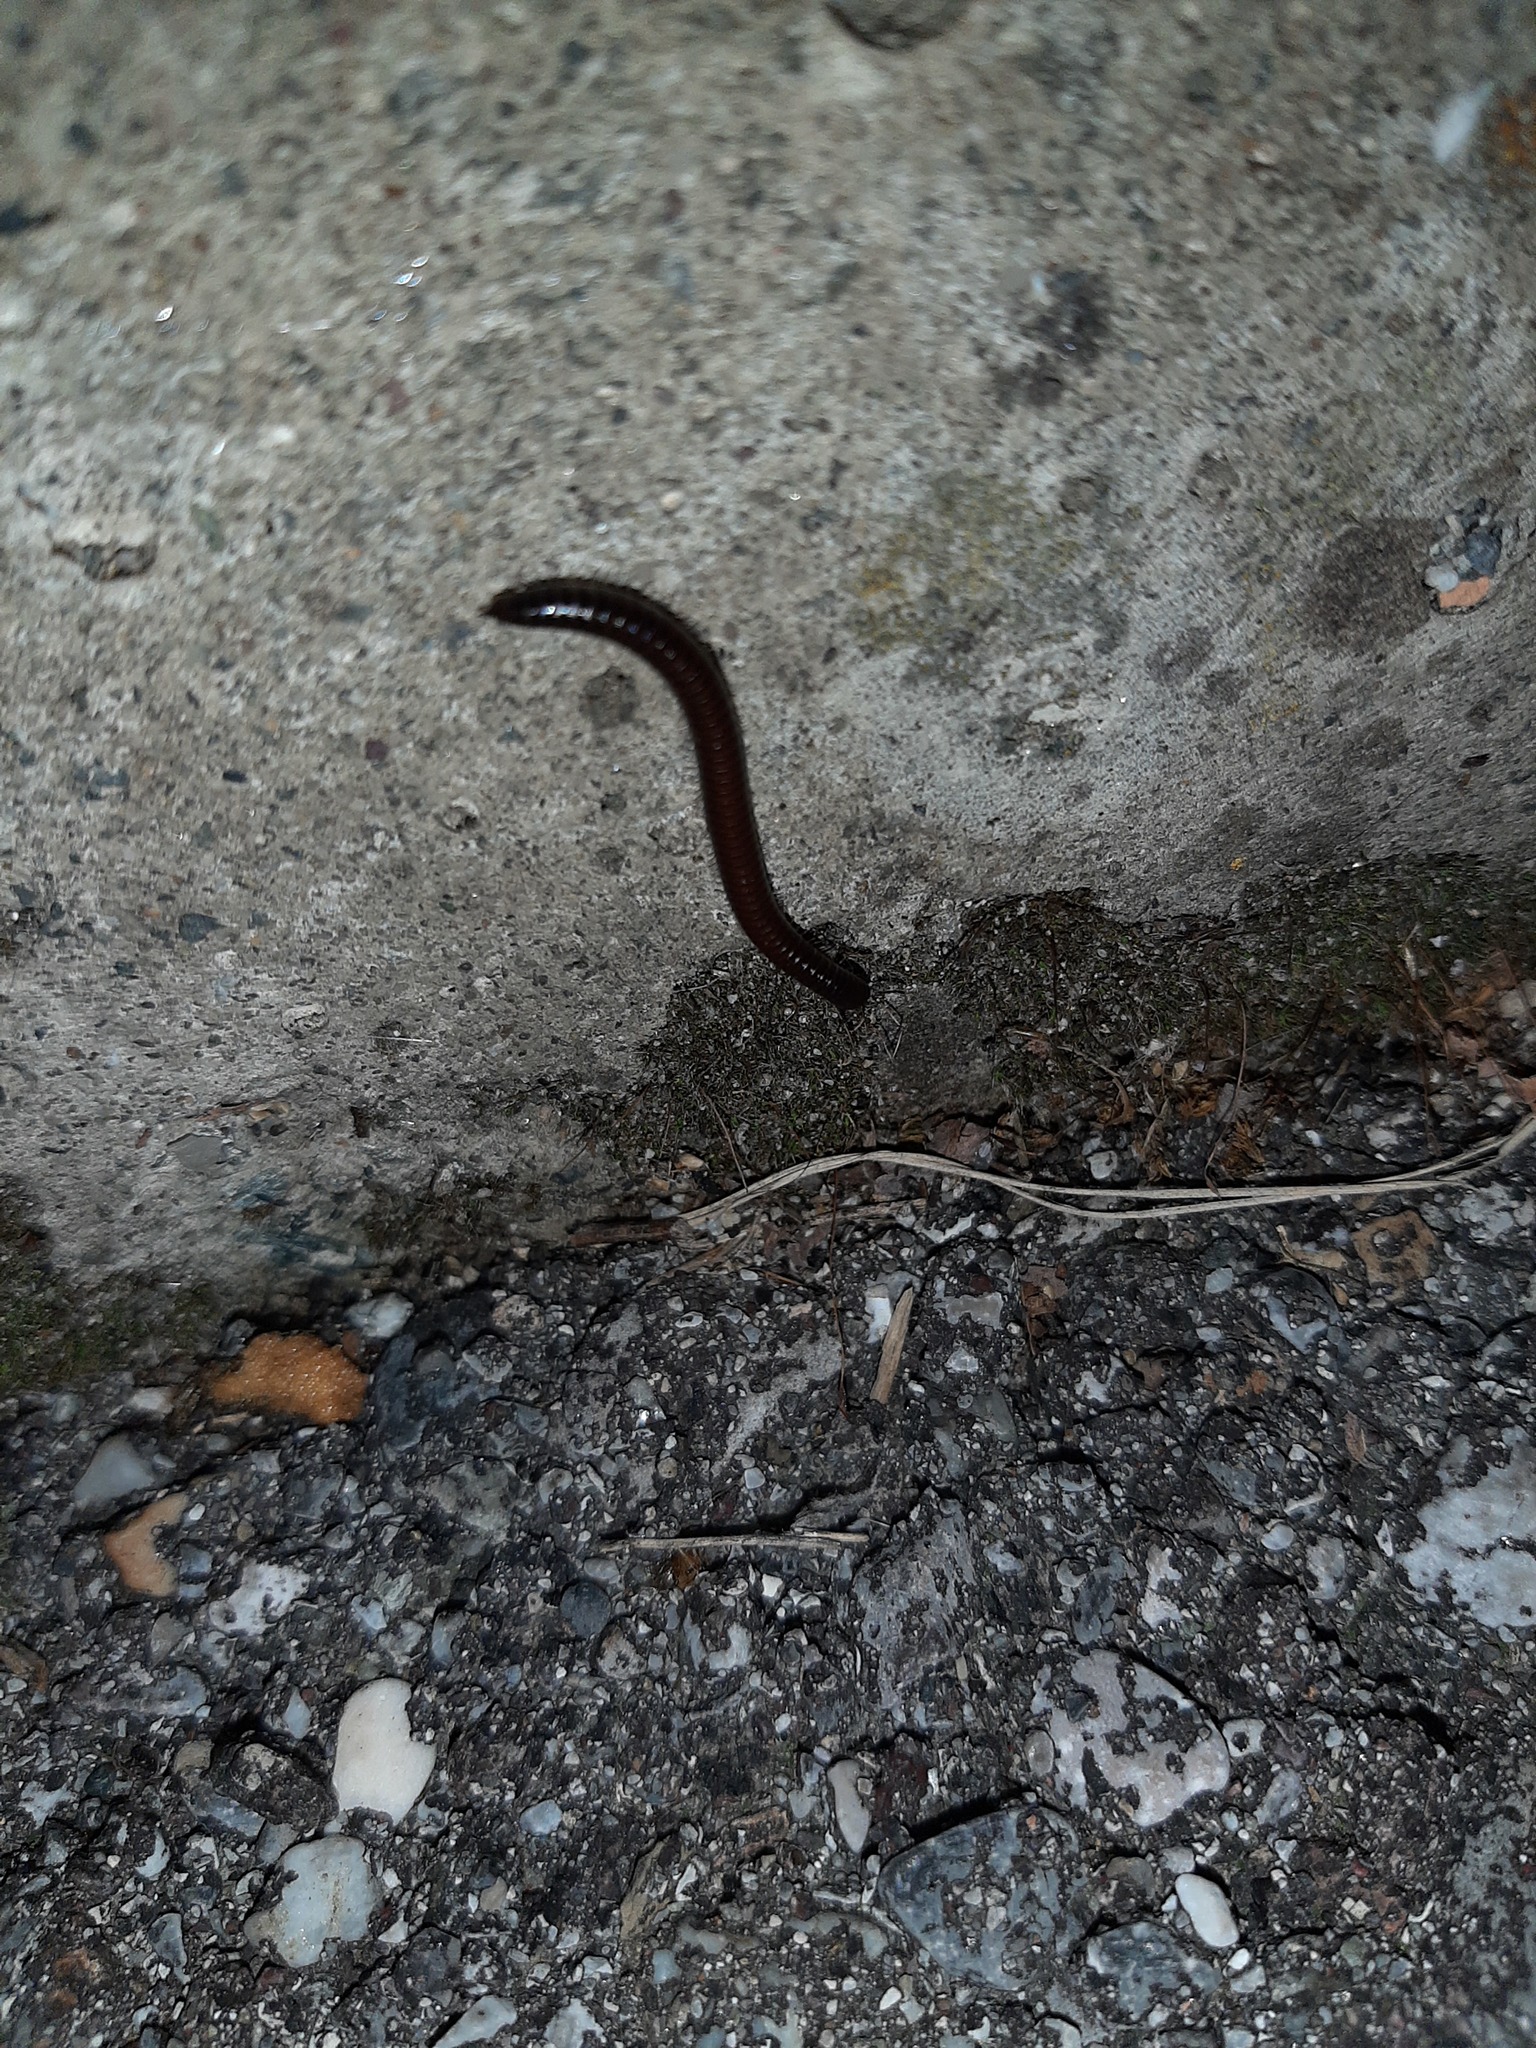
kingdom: Animalia
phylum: Arthropoda
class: Diplopoda
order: Julida
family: Julidae
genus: Ophyiulus
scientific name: Ophyiulus rubrodorsalis
